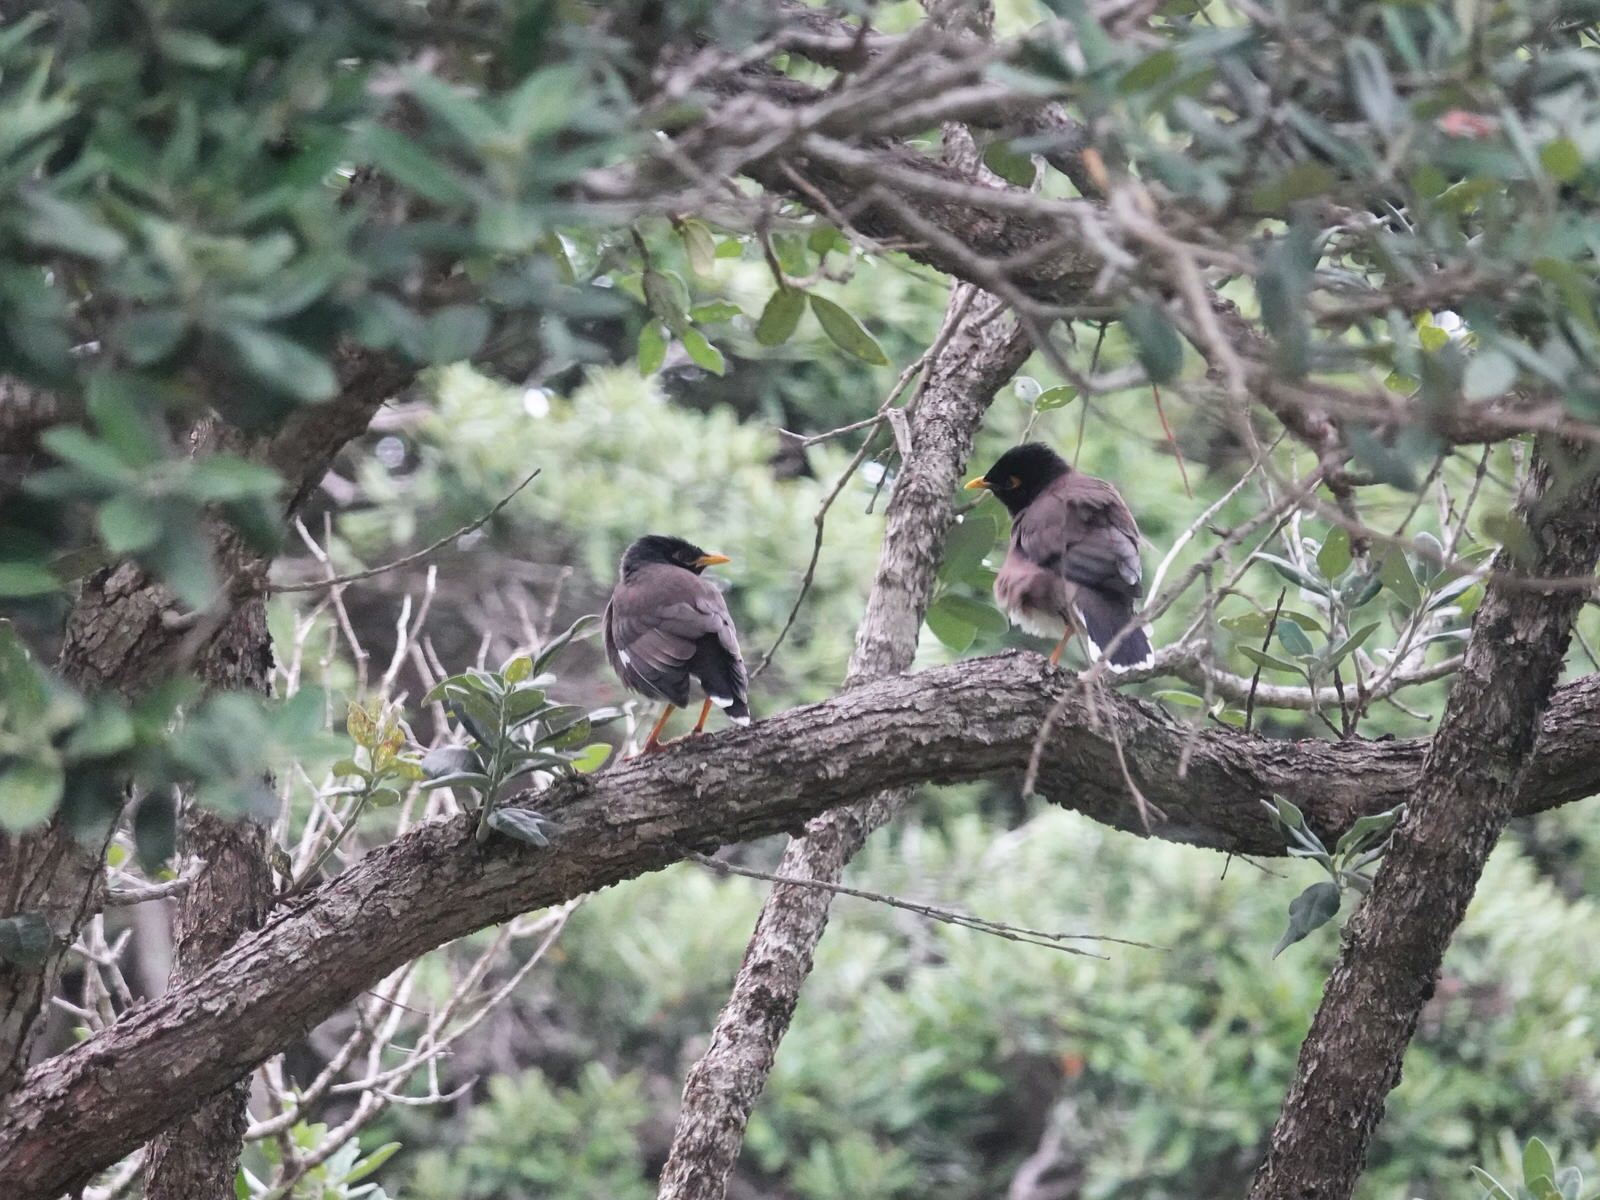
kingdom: Animalia
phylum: Chordata
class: Aves
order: Passeriformes
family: Sturnidae
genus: Acridotheres
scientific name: Acridotheres tristis
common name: Common myna
